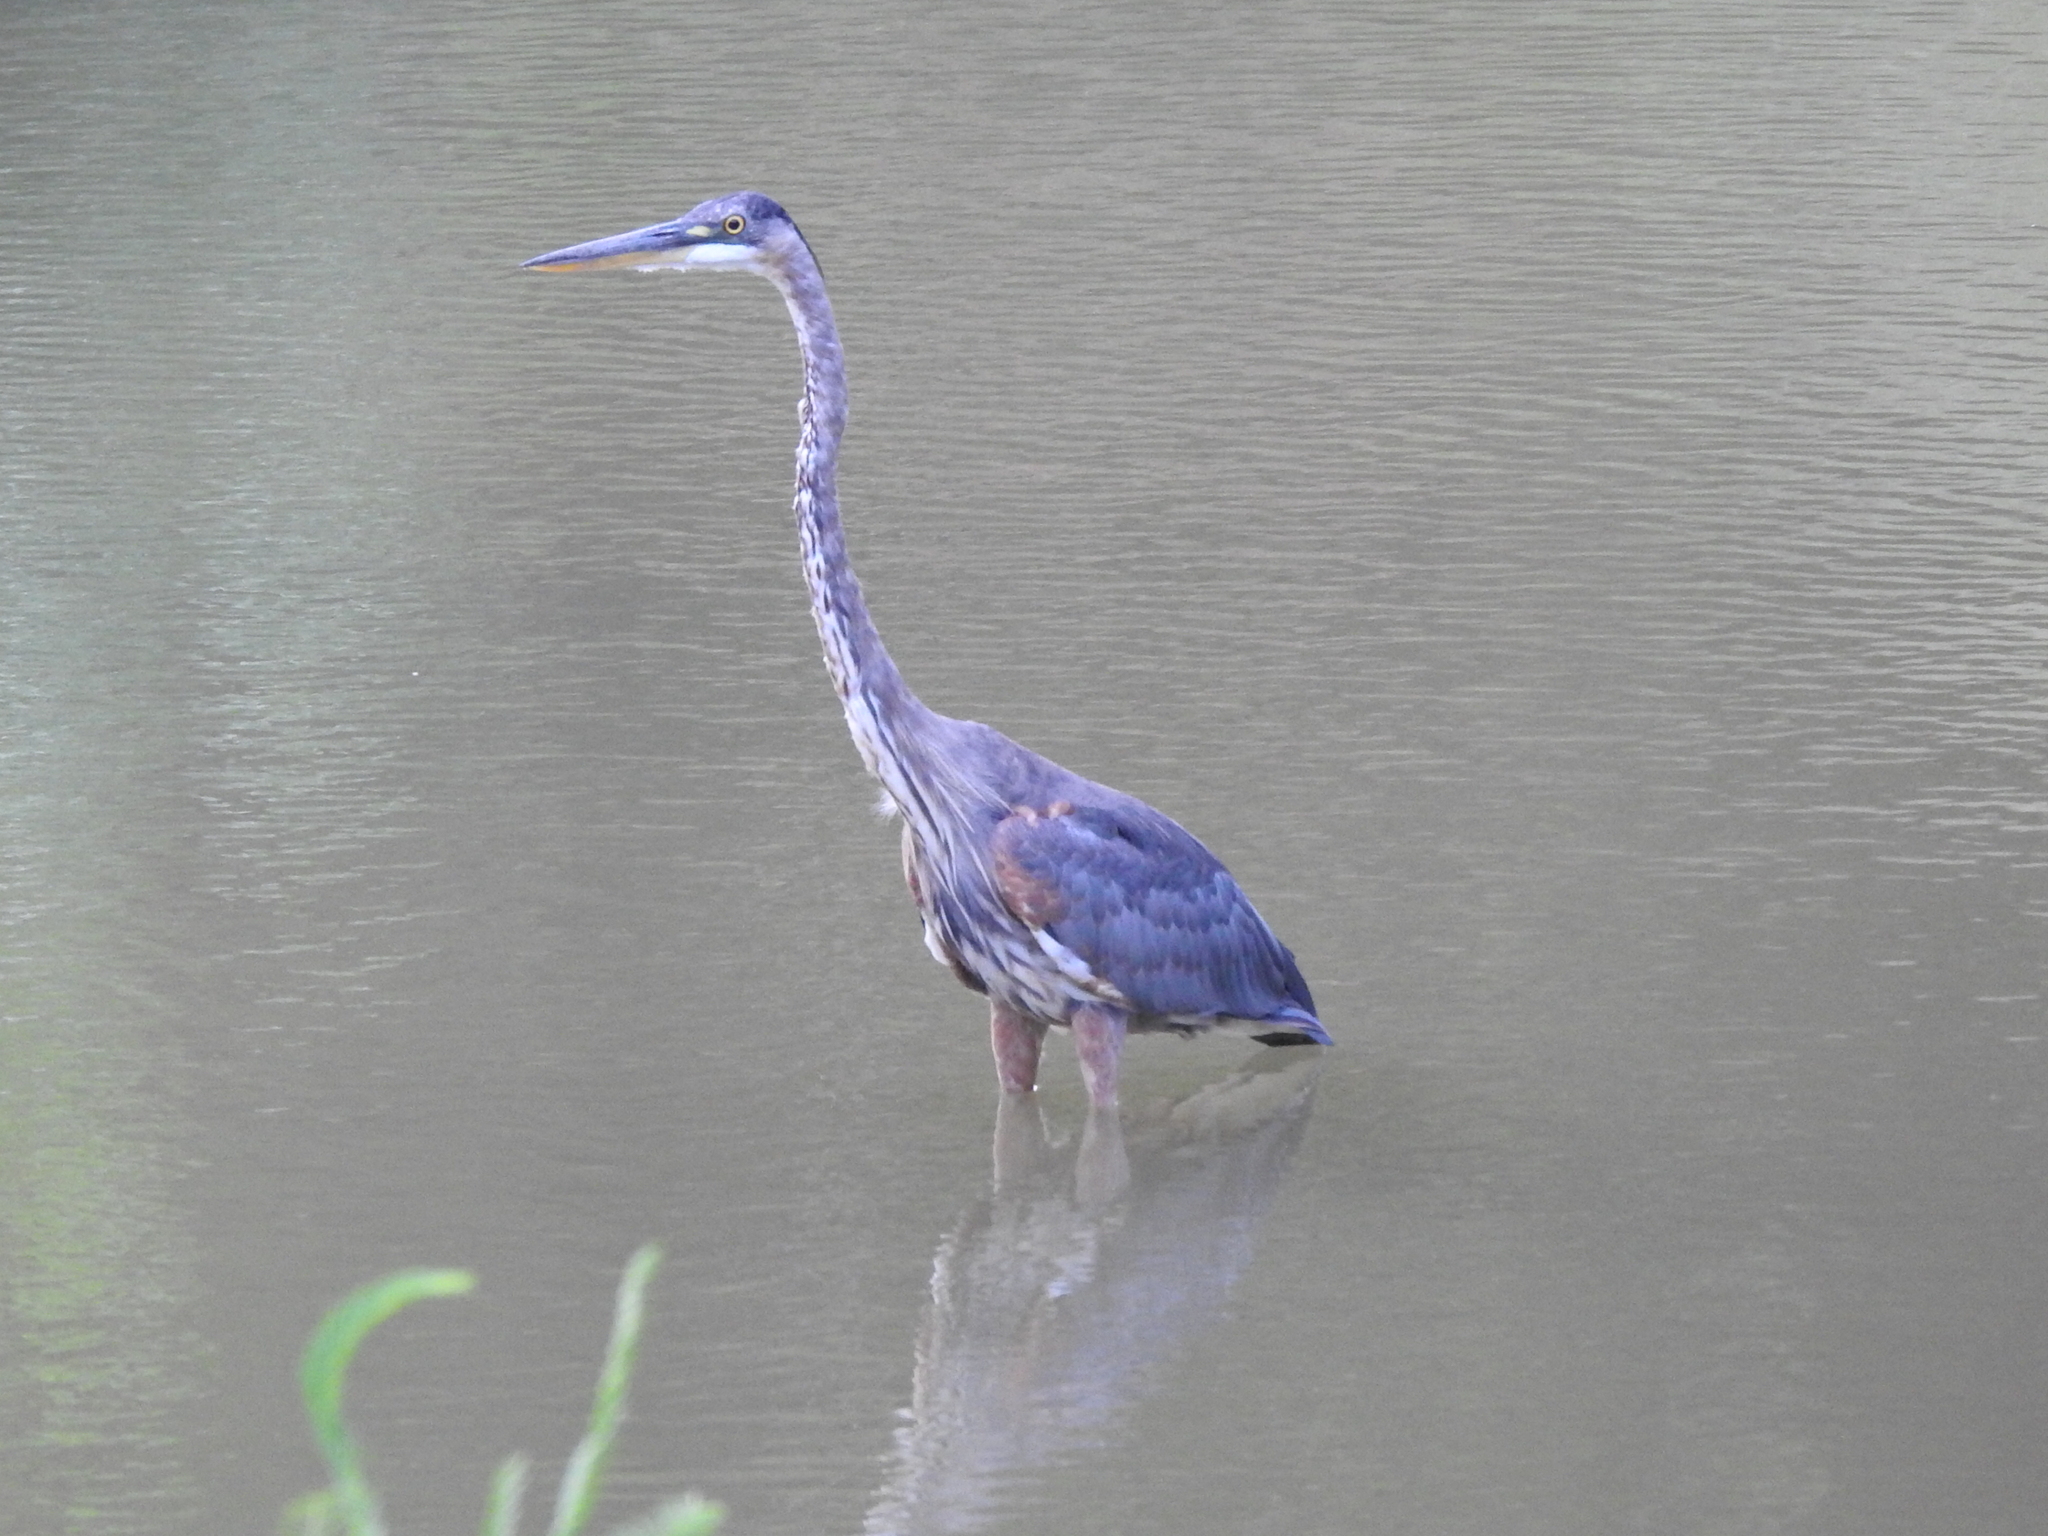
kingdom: Animalia
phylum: Chordata
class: Aves
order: Pelecaniformes
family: Ardeidae
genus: Ardea
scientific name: Ardea herodias
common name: Great blue heron
